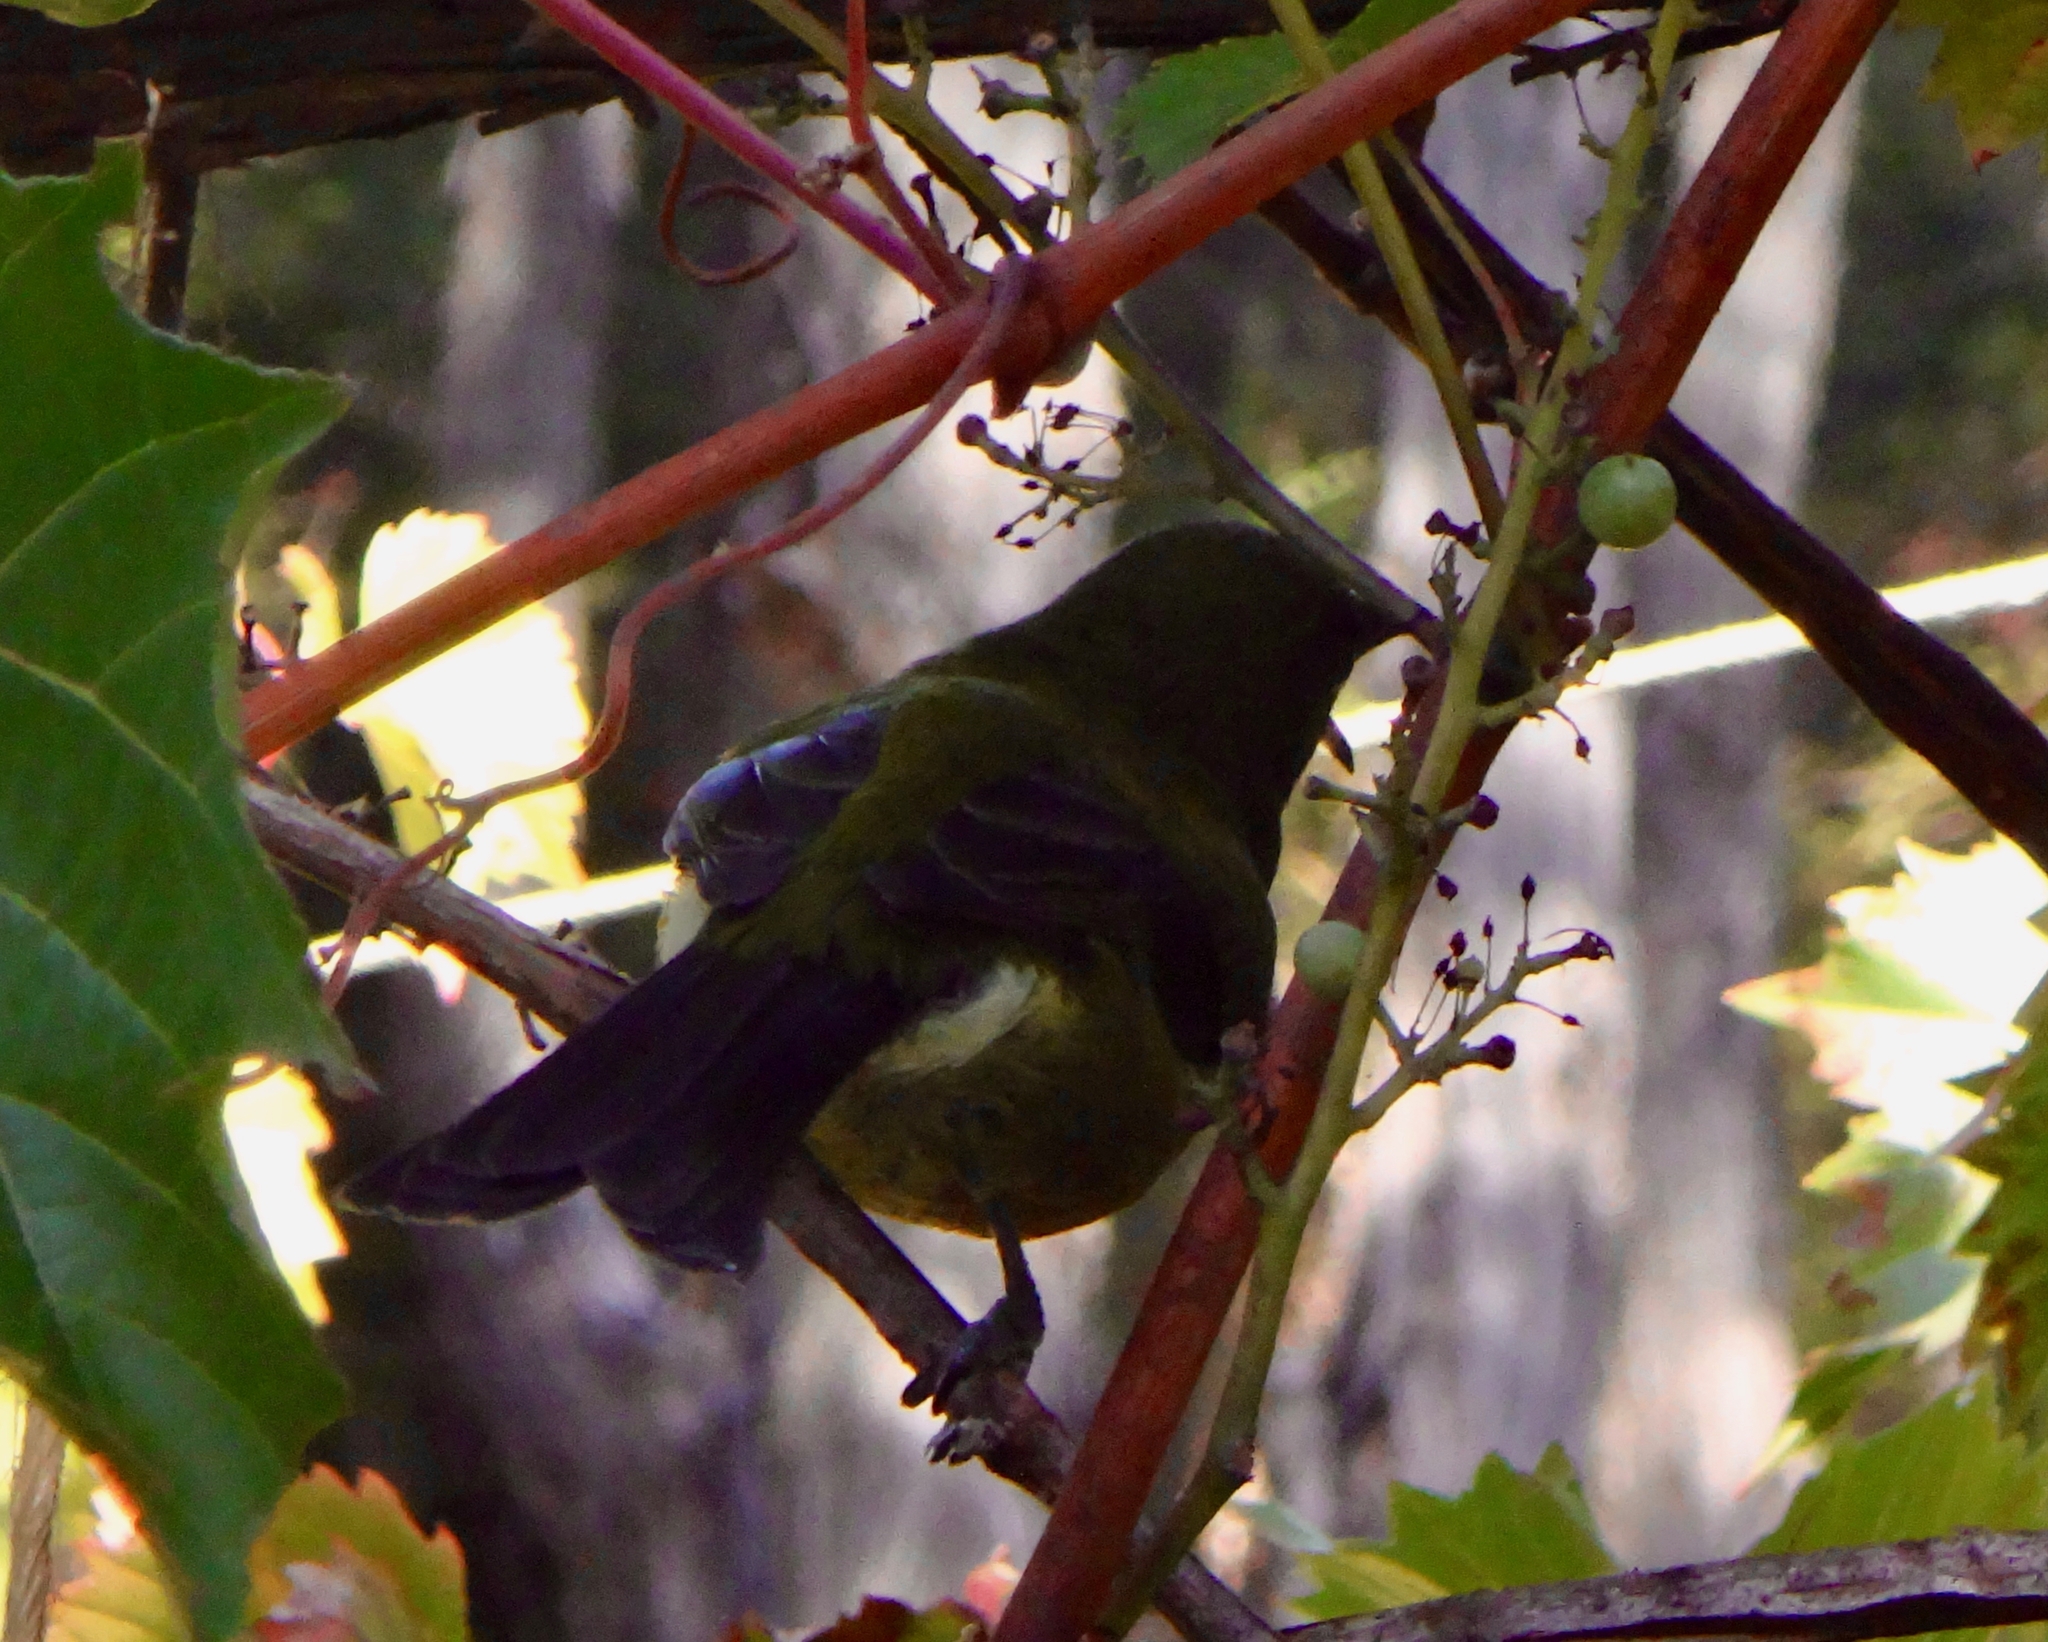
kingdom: Animalia
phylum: Chordata
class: Aves
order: Passeriformes
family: Meliphagidae
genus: Anthornis
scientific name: Anthornis melanura
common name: New zealand bellbird
